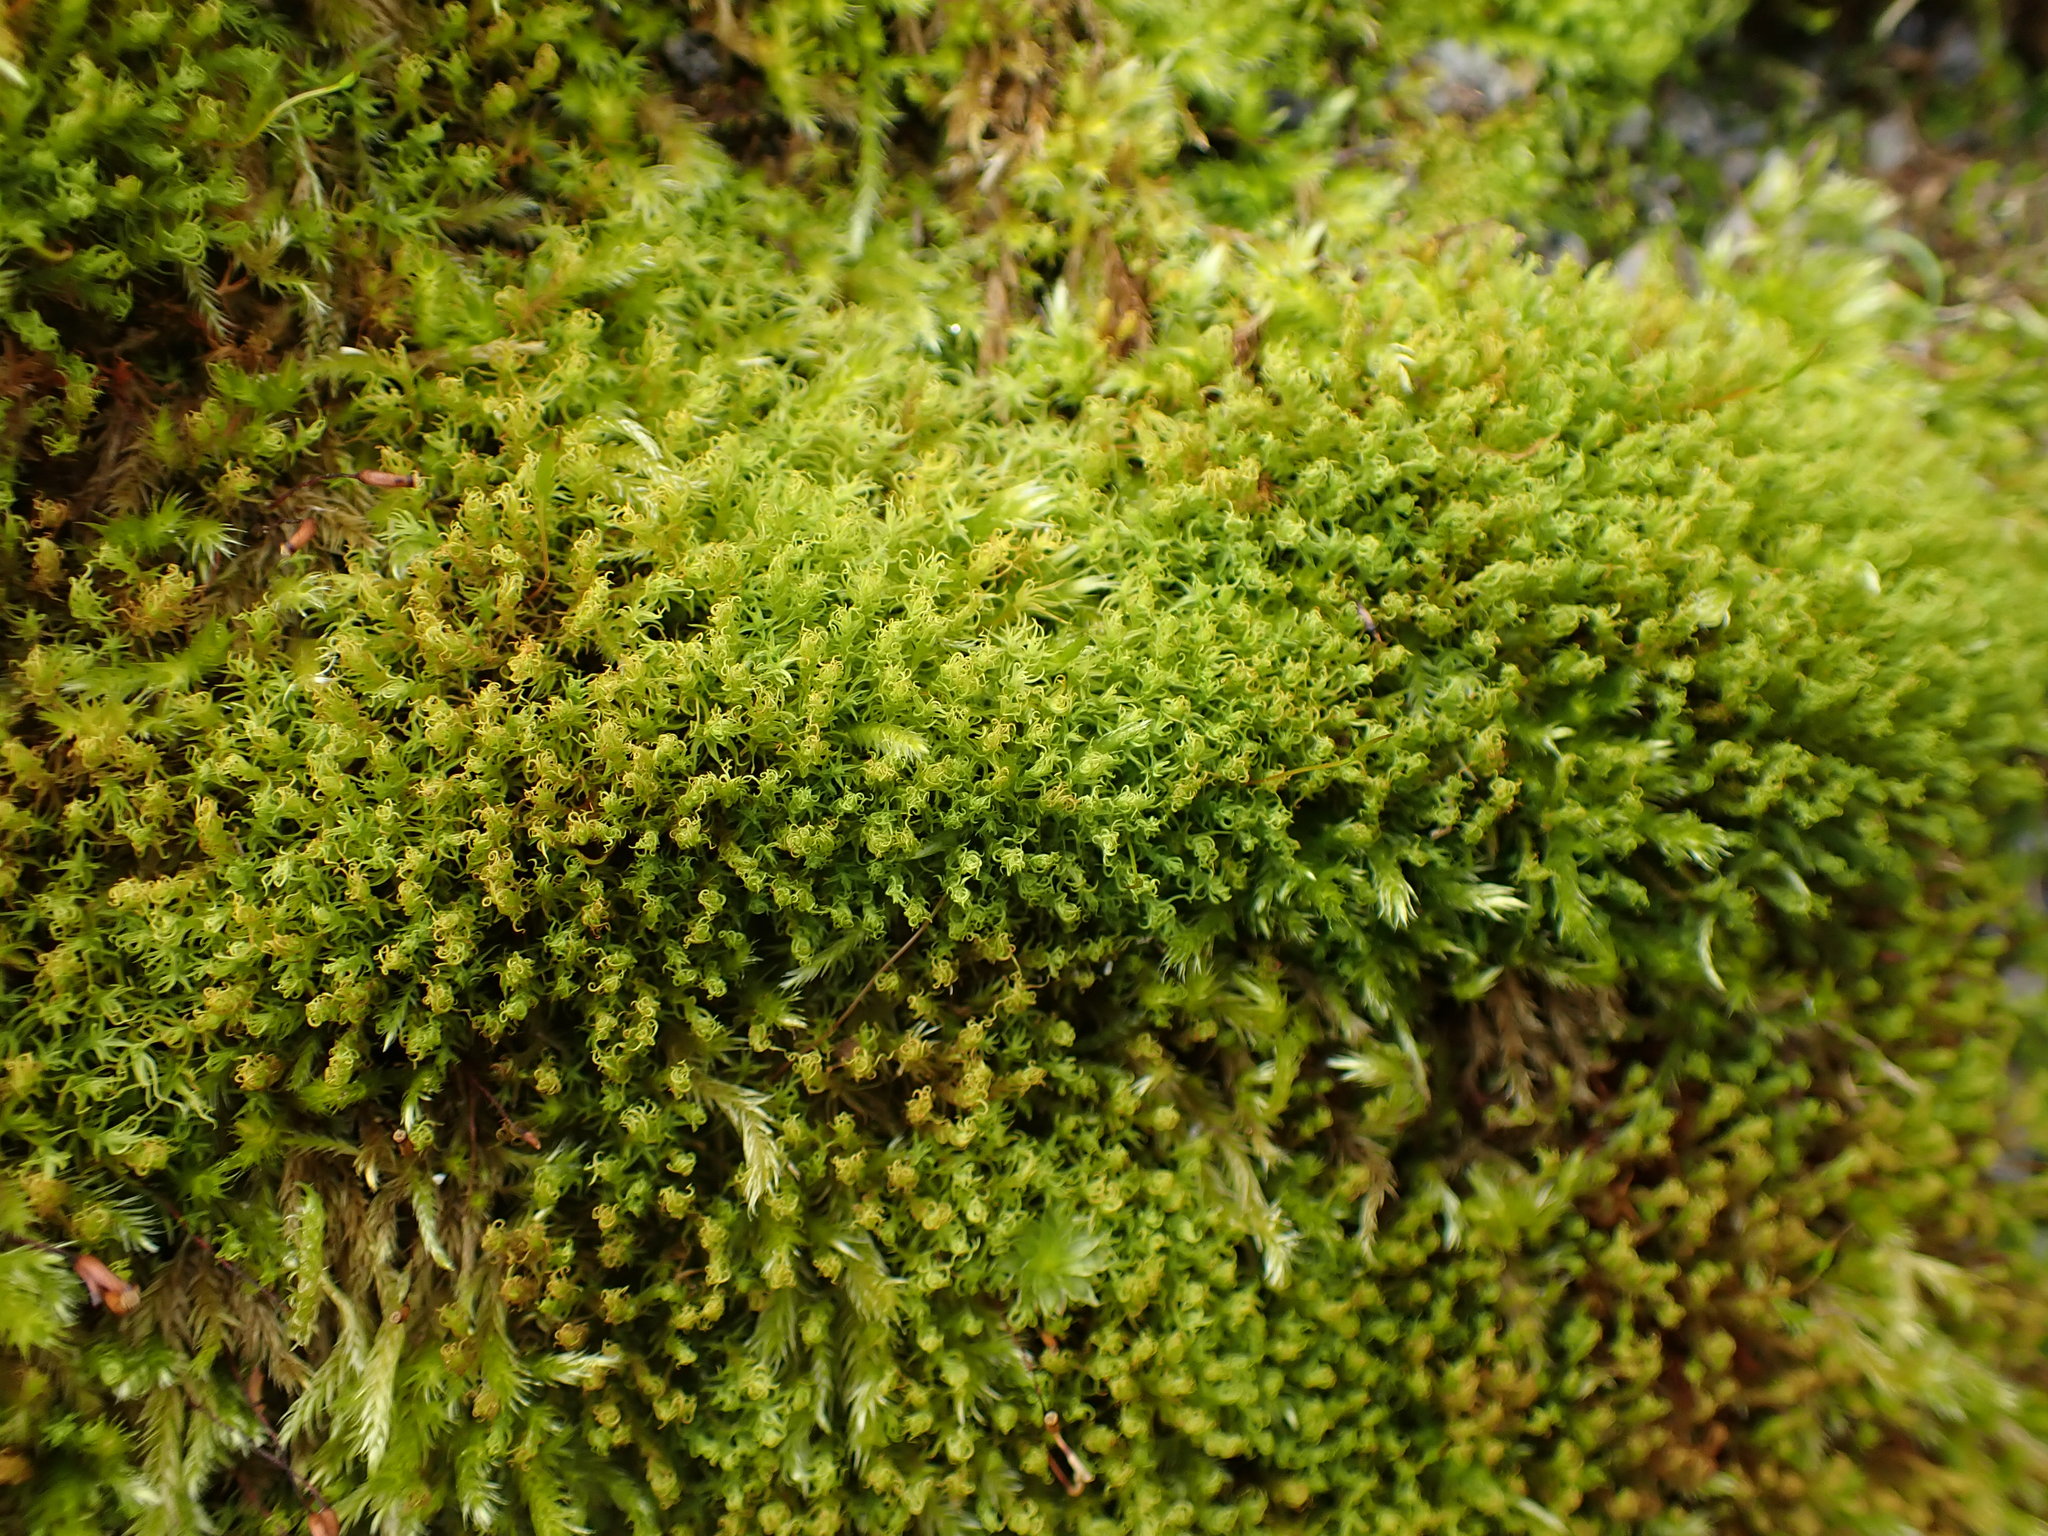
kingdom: Plantae
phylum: Bryophyta
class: Bryopsida
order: Pottiales
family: Pottiaceae
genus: Vinealobryum
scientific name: Vinealobryum insulanum
